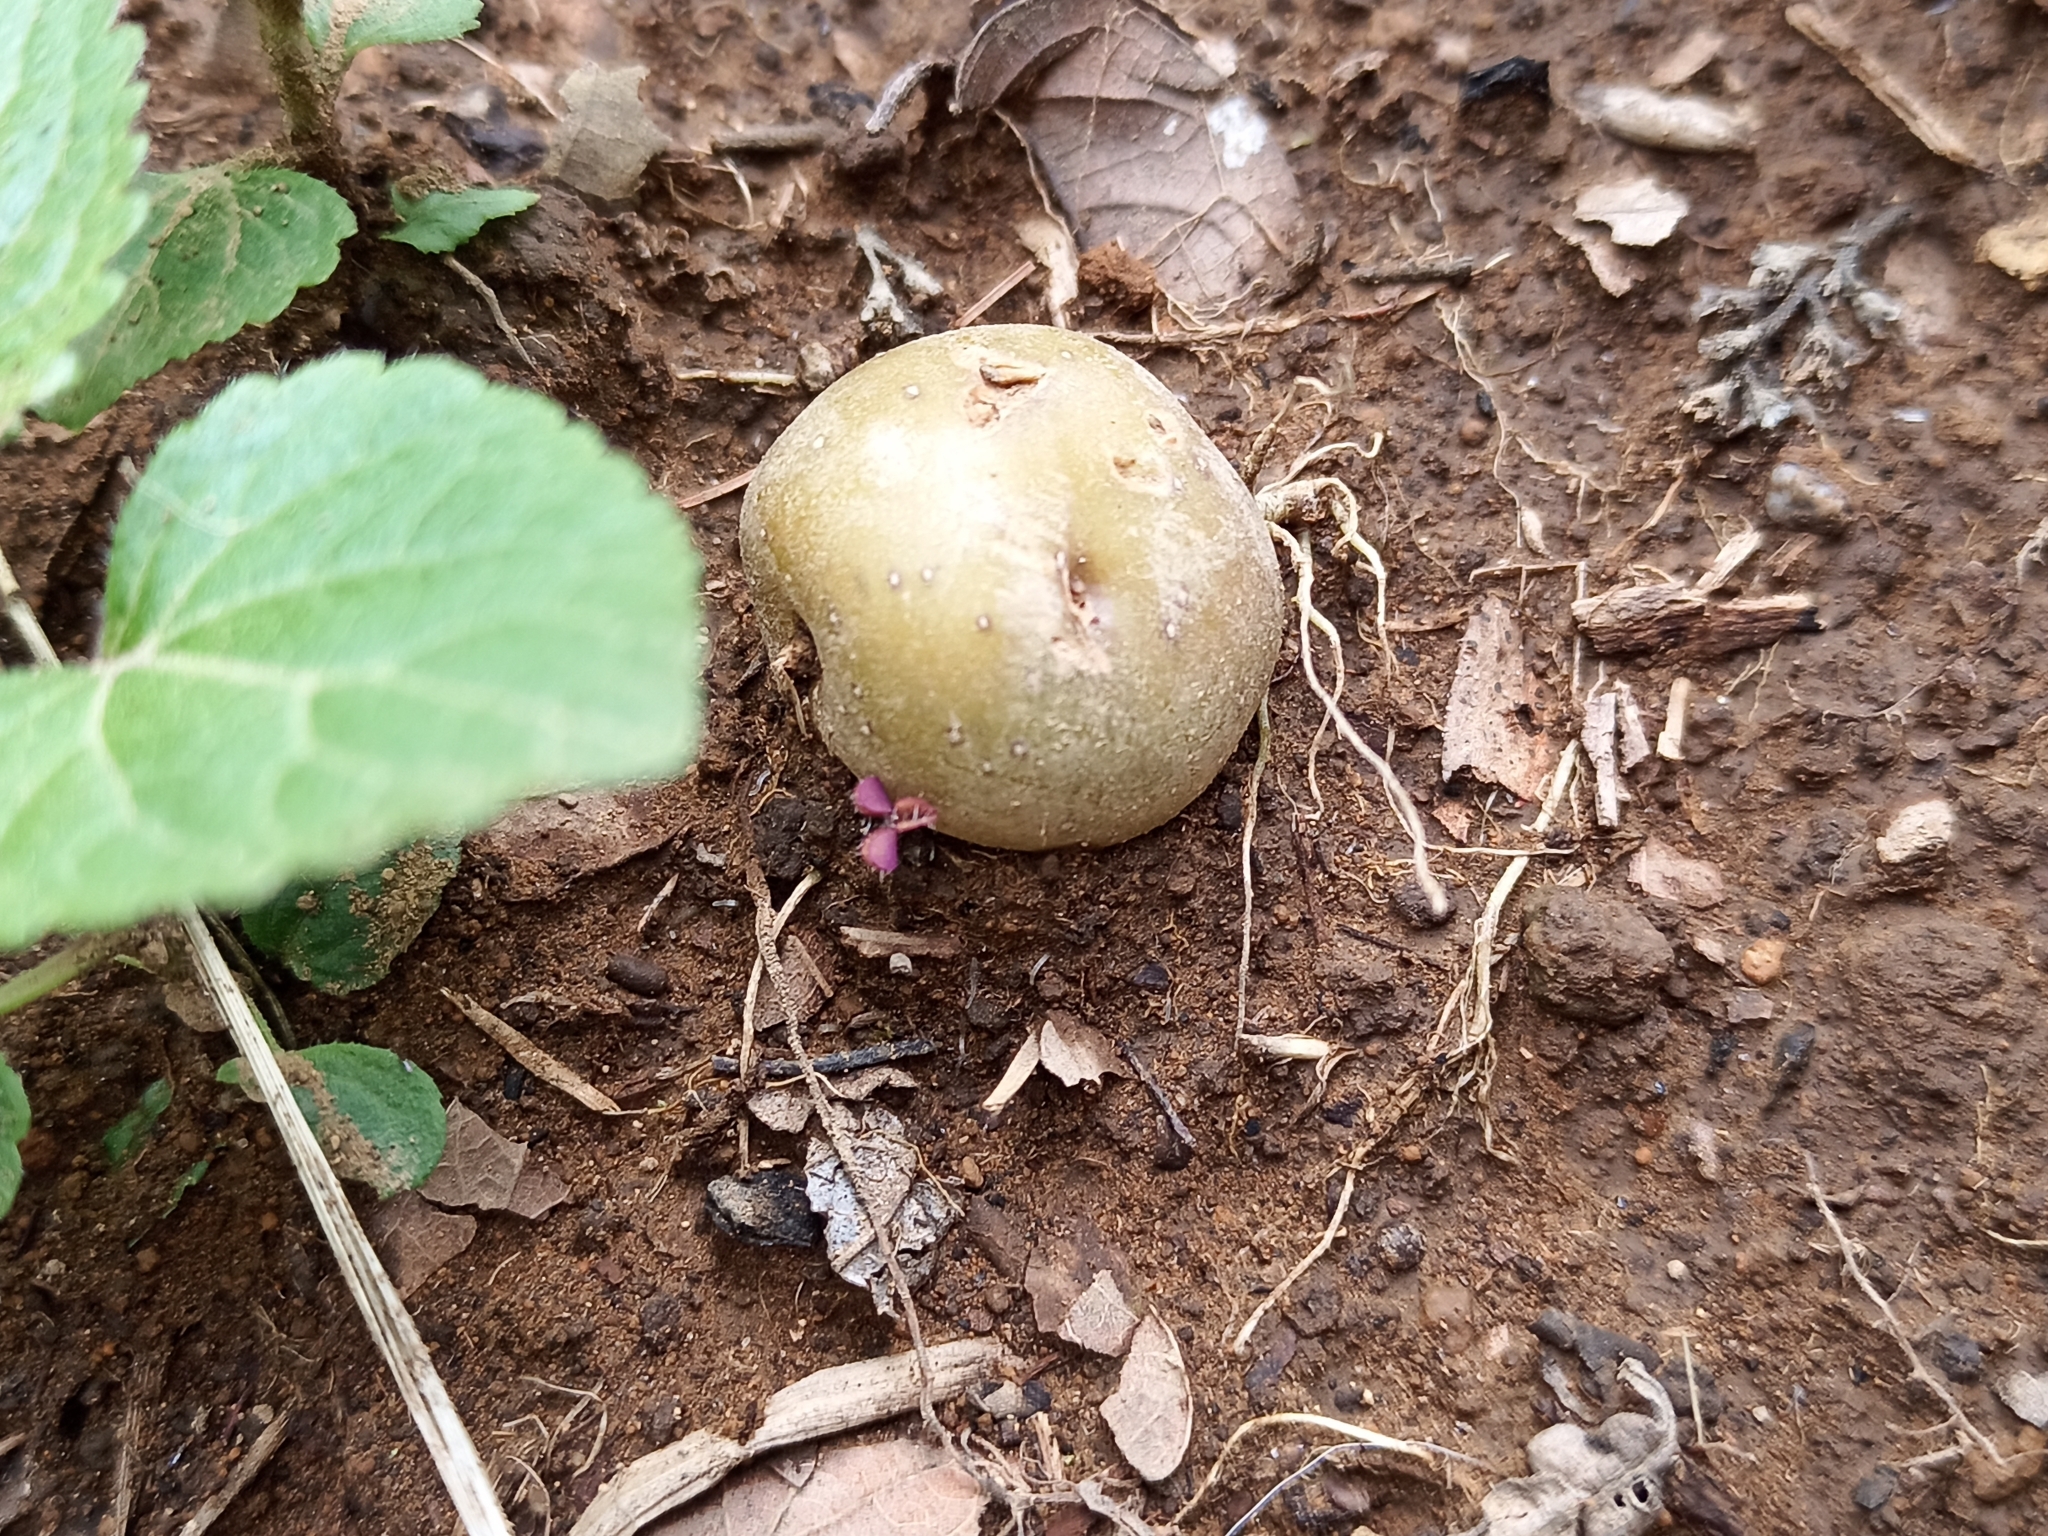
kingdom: Plantae
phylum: Tracheophyta
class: Magnoliopsida
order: Solanales
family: Solanaceae
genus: Solanum
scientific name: Solanum tuberosum
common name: Potato
